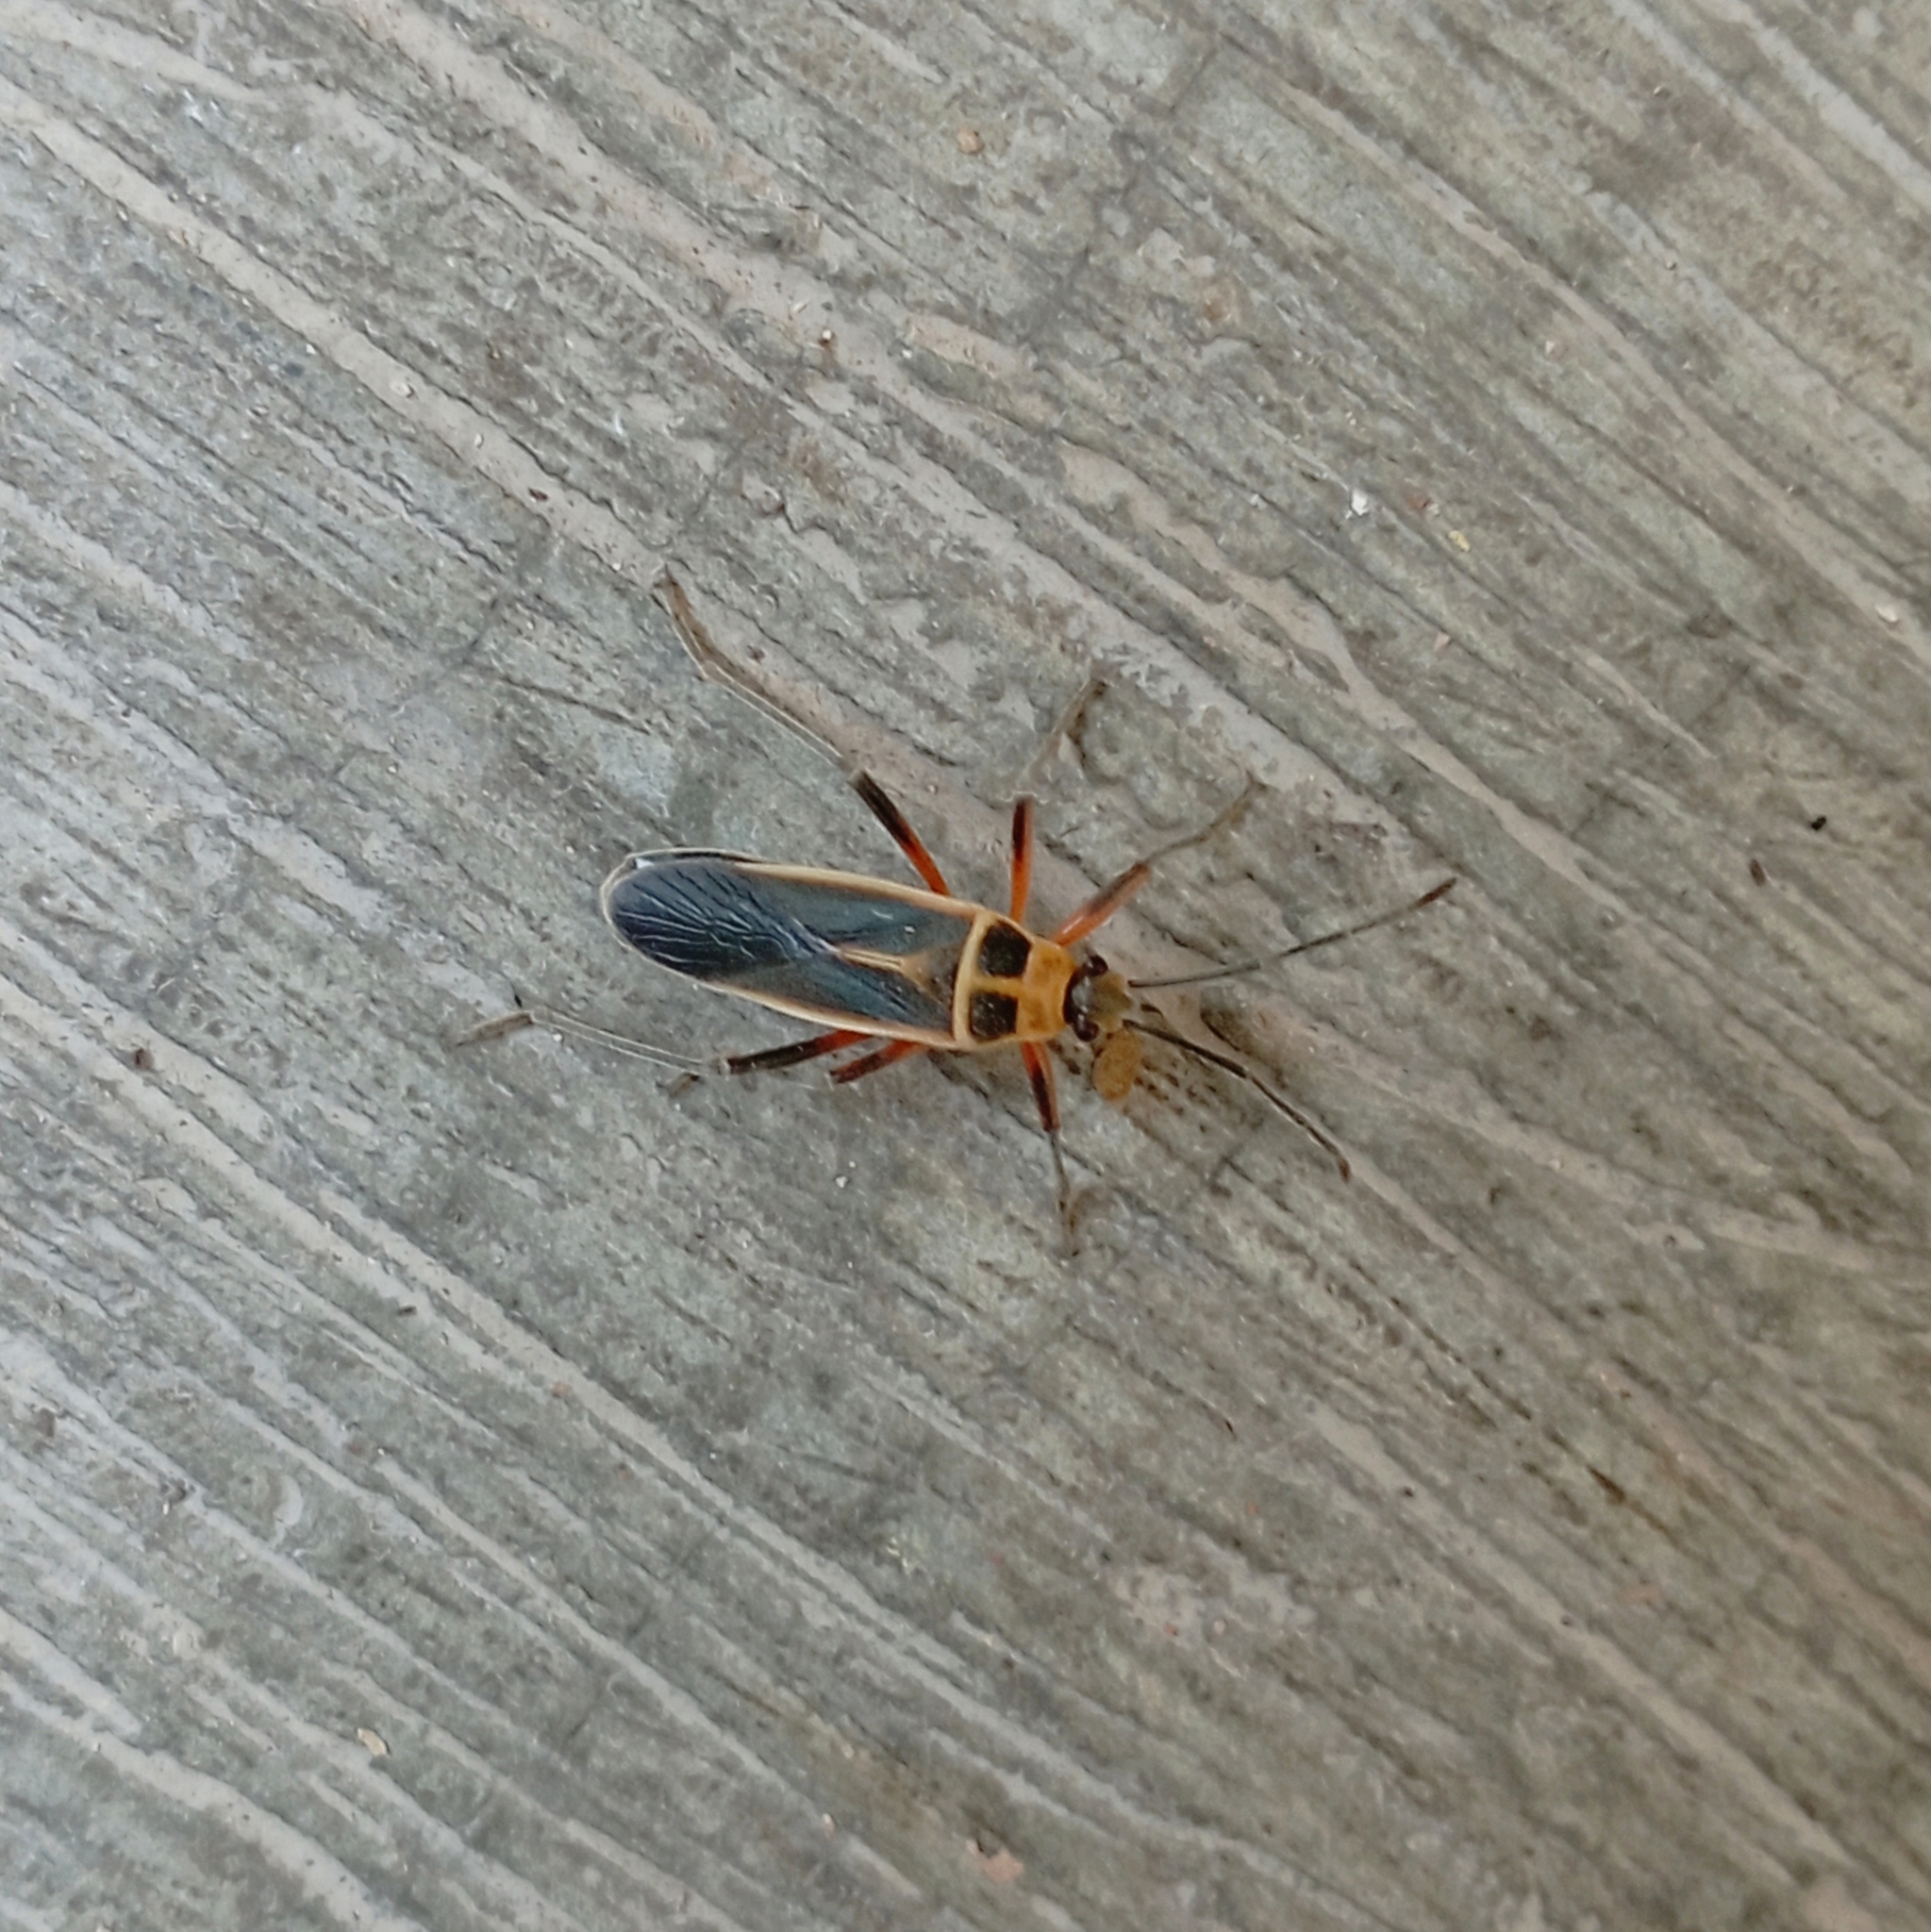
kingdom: Animalia
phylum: Arthropoda
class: Insecta
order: Hemiptera
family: Largidae
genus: Stenomacra
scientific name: Stenomacra marginella
